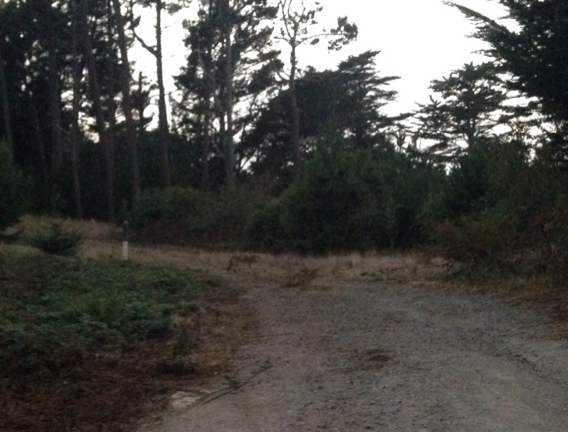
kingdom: Animalia
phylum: Chordata
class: Mammalia
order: Carnivora
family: Canidae
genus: Canis
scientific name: Canis latrans
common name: Coyote
